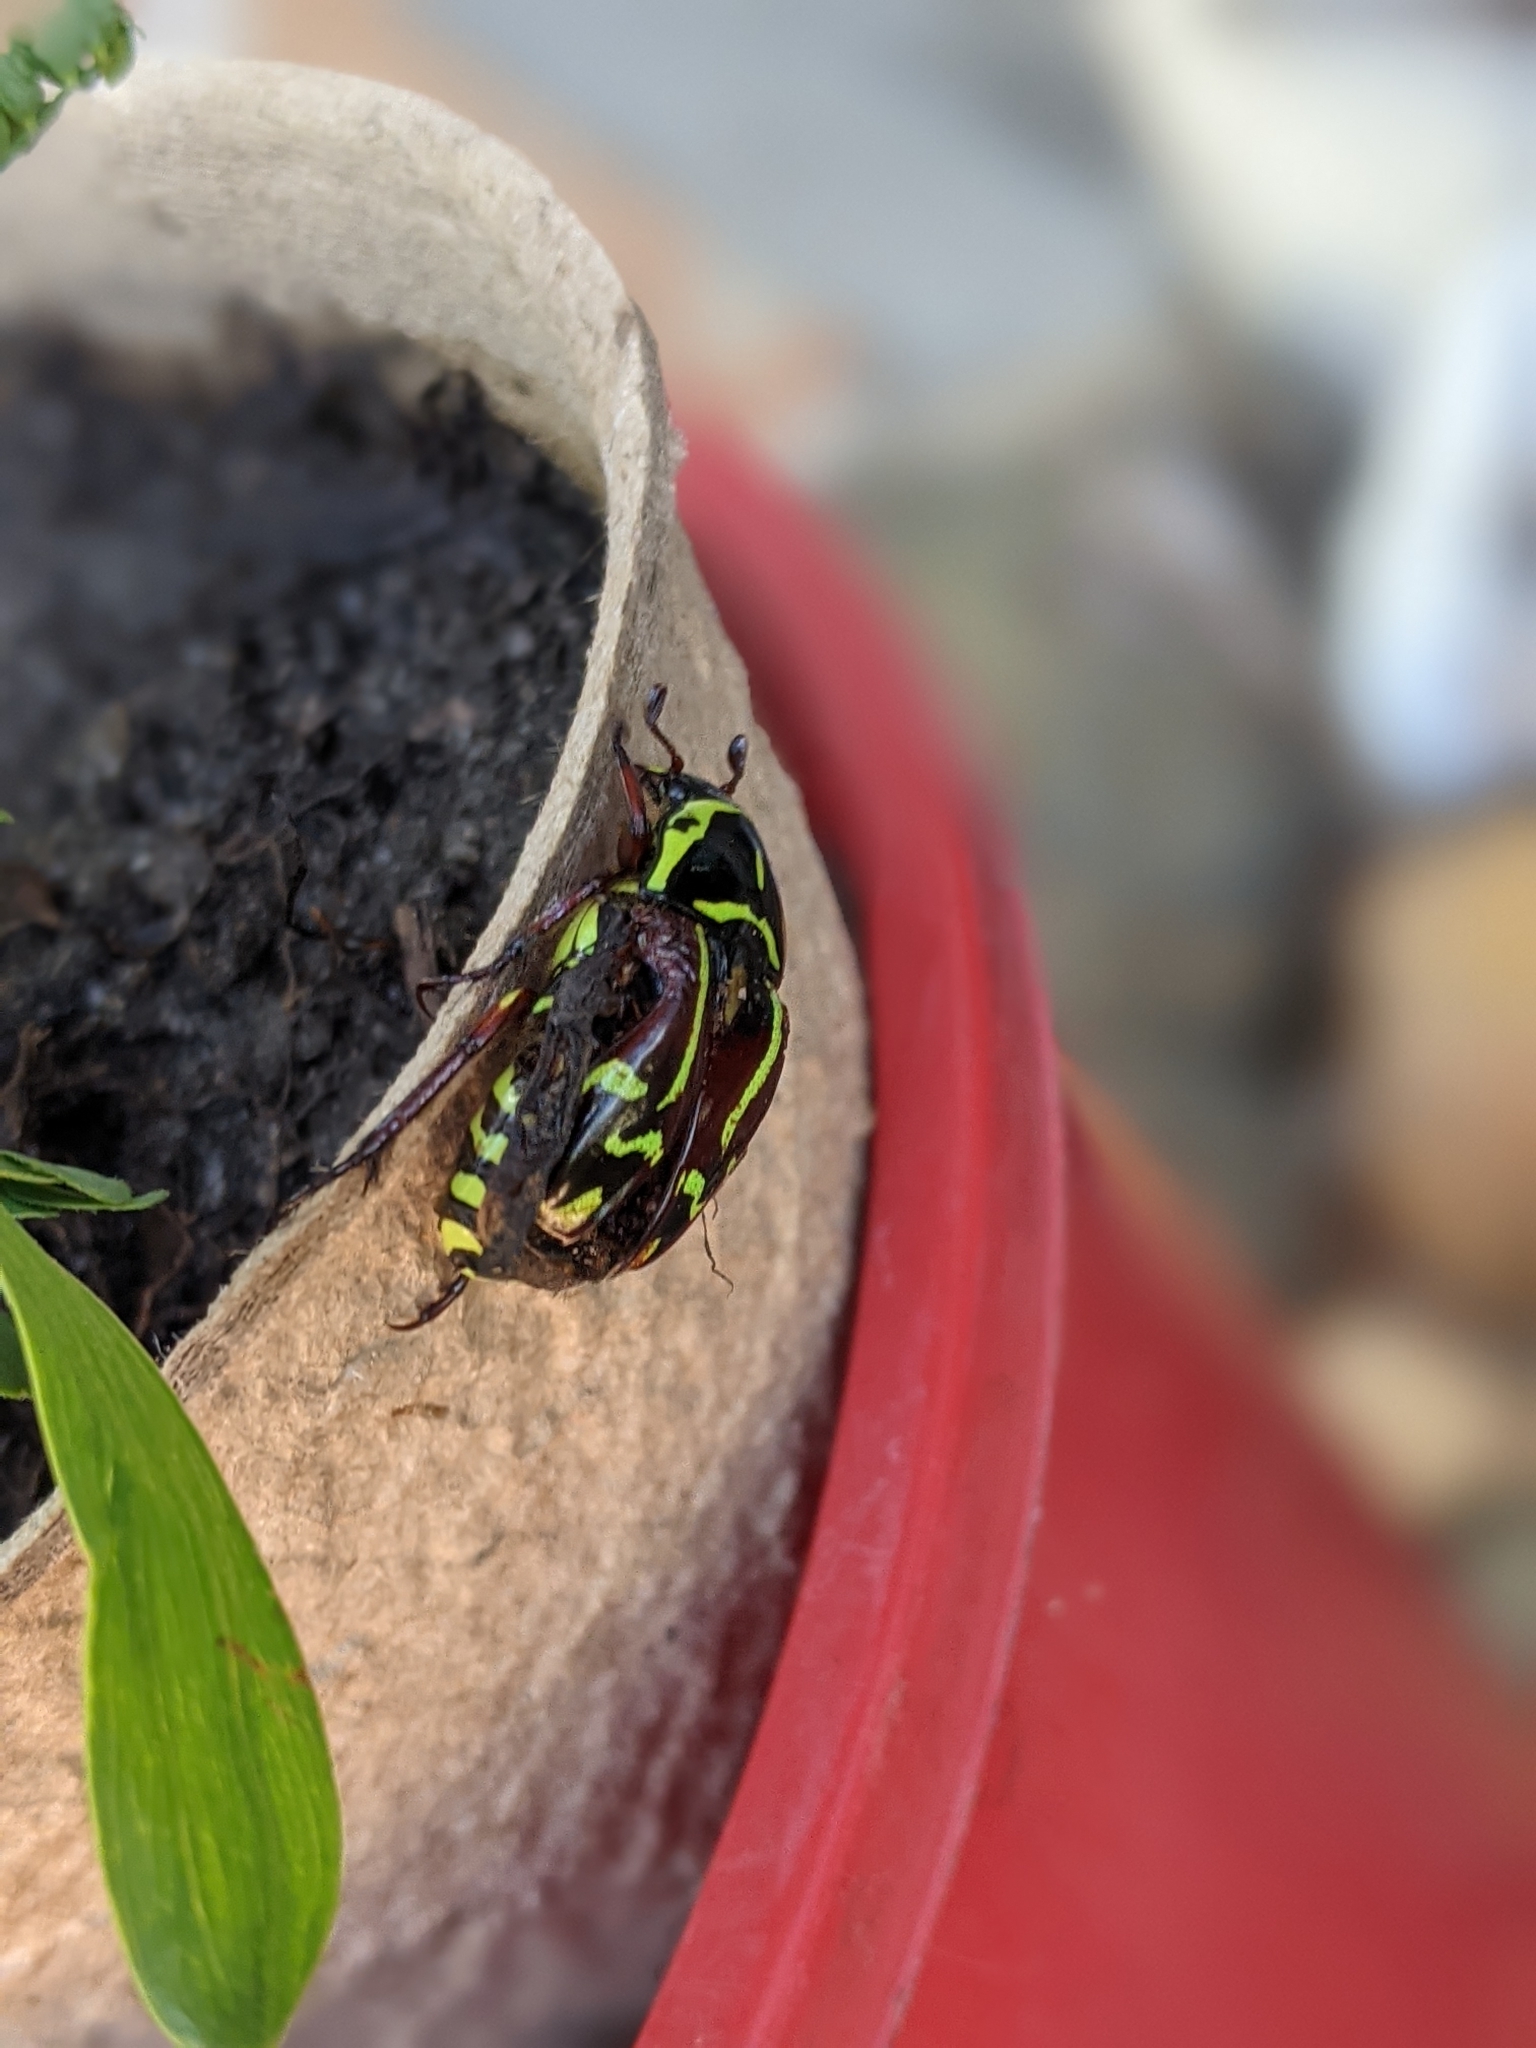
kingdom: Animalia
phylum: Arthropoda
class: Insecta
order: Coleoptera
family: Scarabaeidae
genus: Eupoecila
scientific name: Eupoecila australasiae
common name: Fiddler beetle
